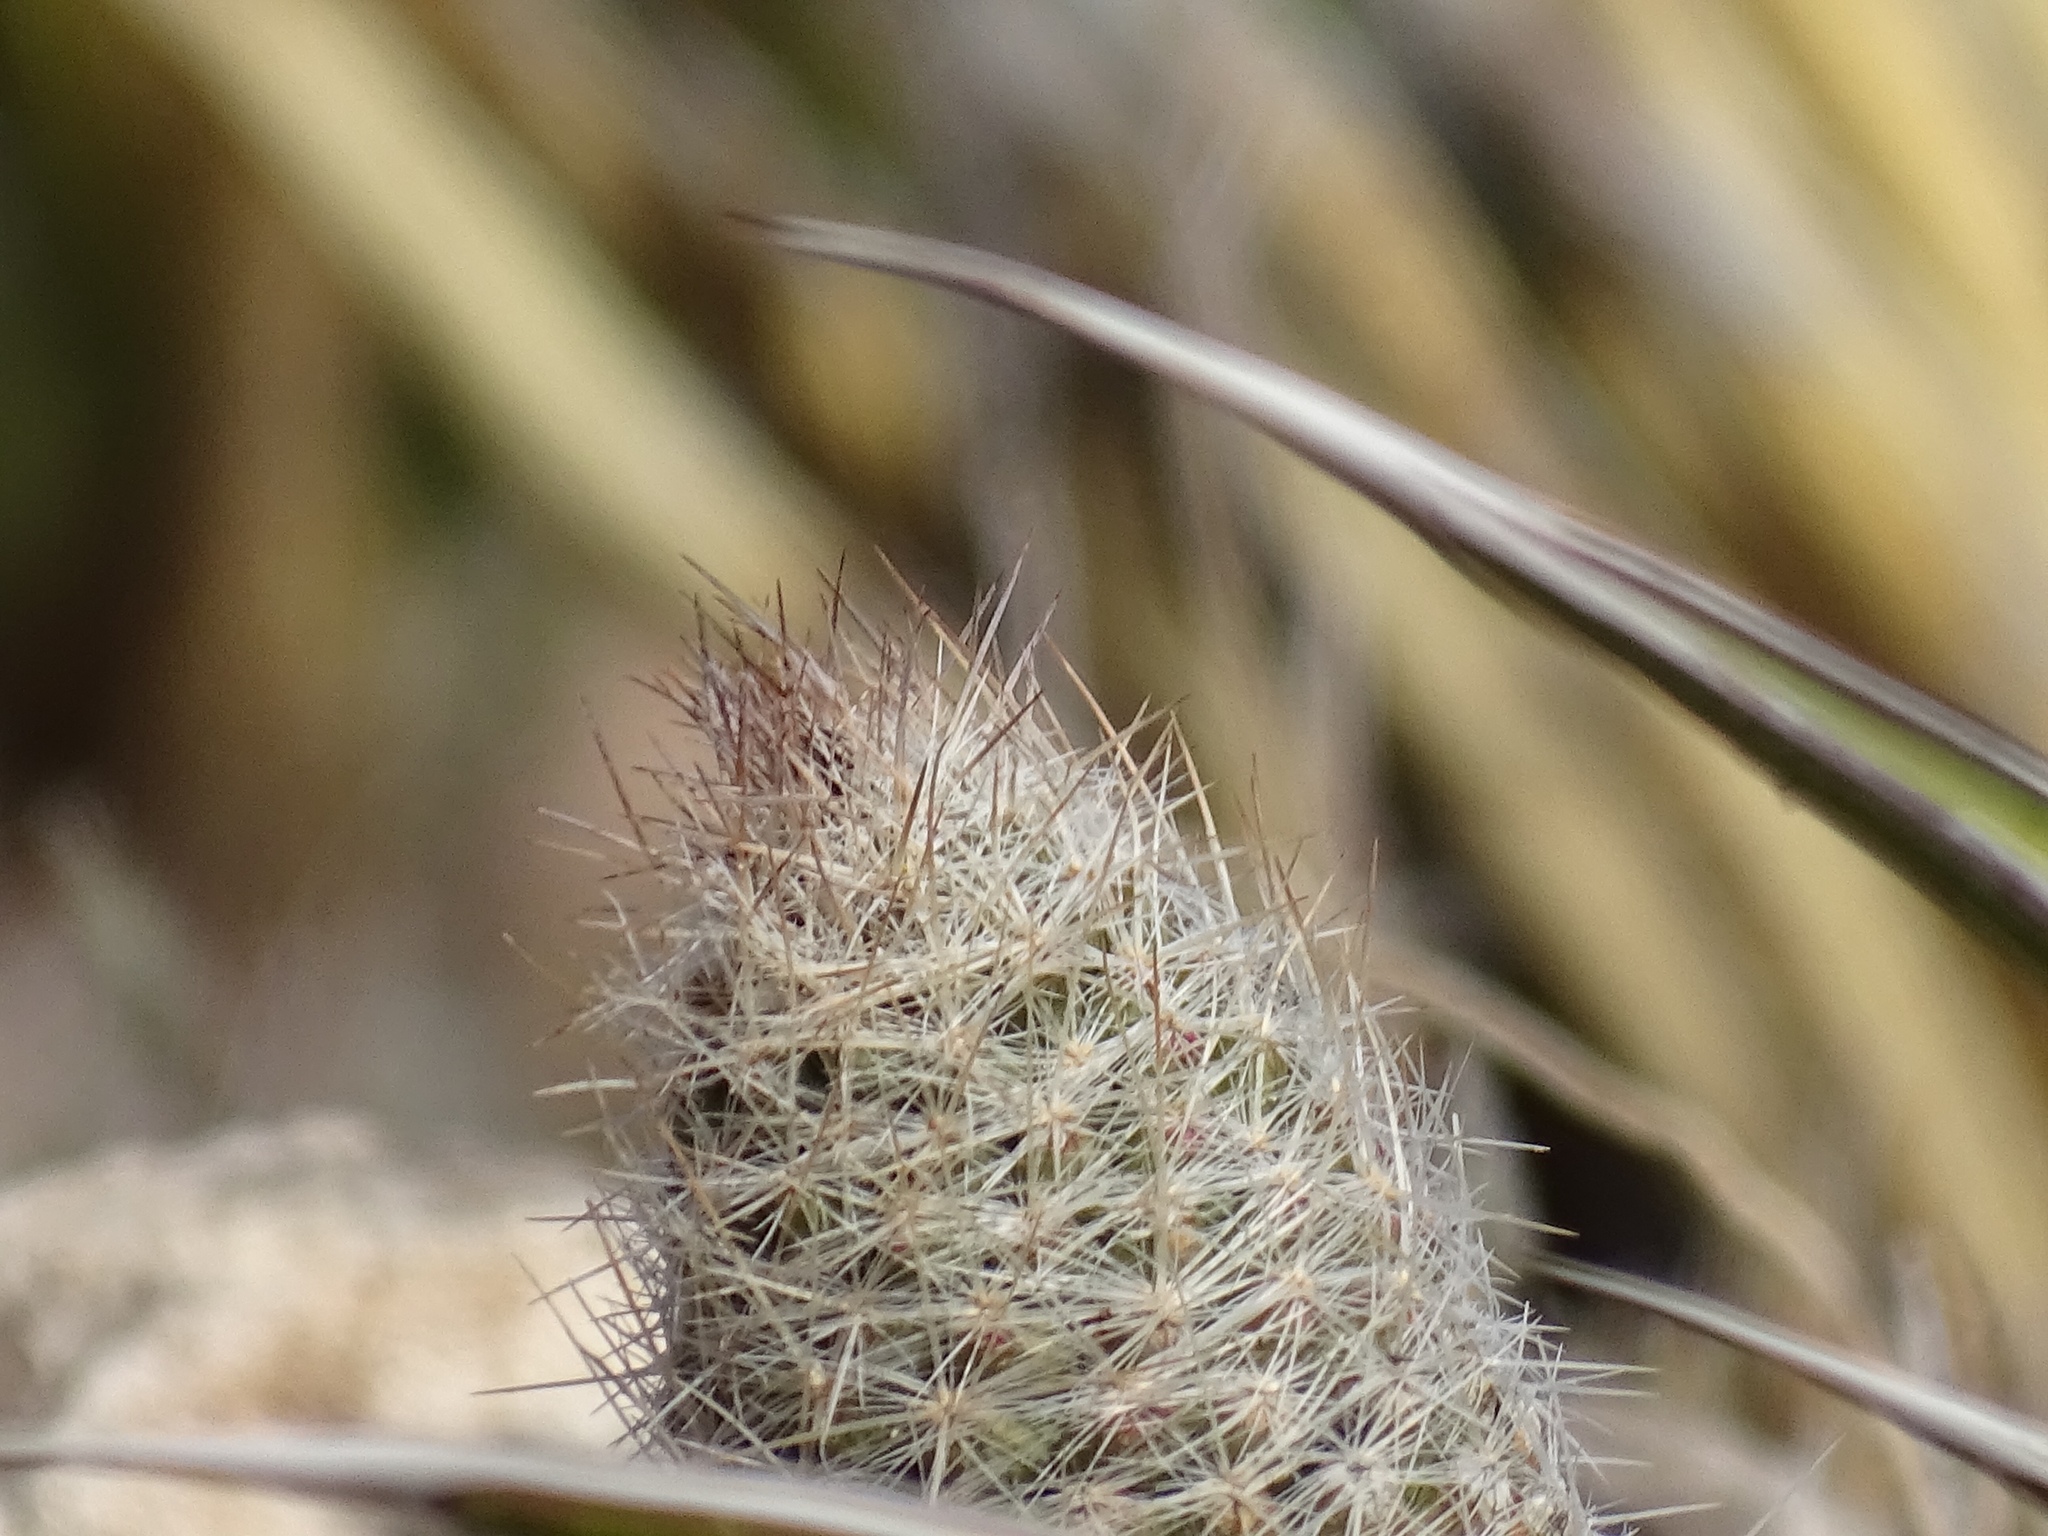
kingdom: Plantae
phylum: Tracheophyta
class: Magnoliopsida
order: Caryophyllales
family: Cactaceae
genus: Pelecyphora
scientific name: Pelecyphora tuberculosa
